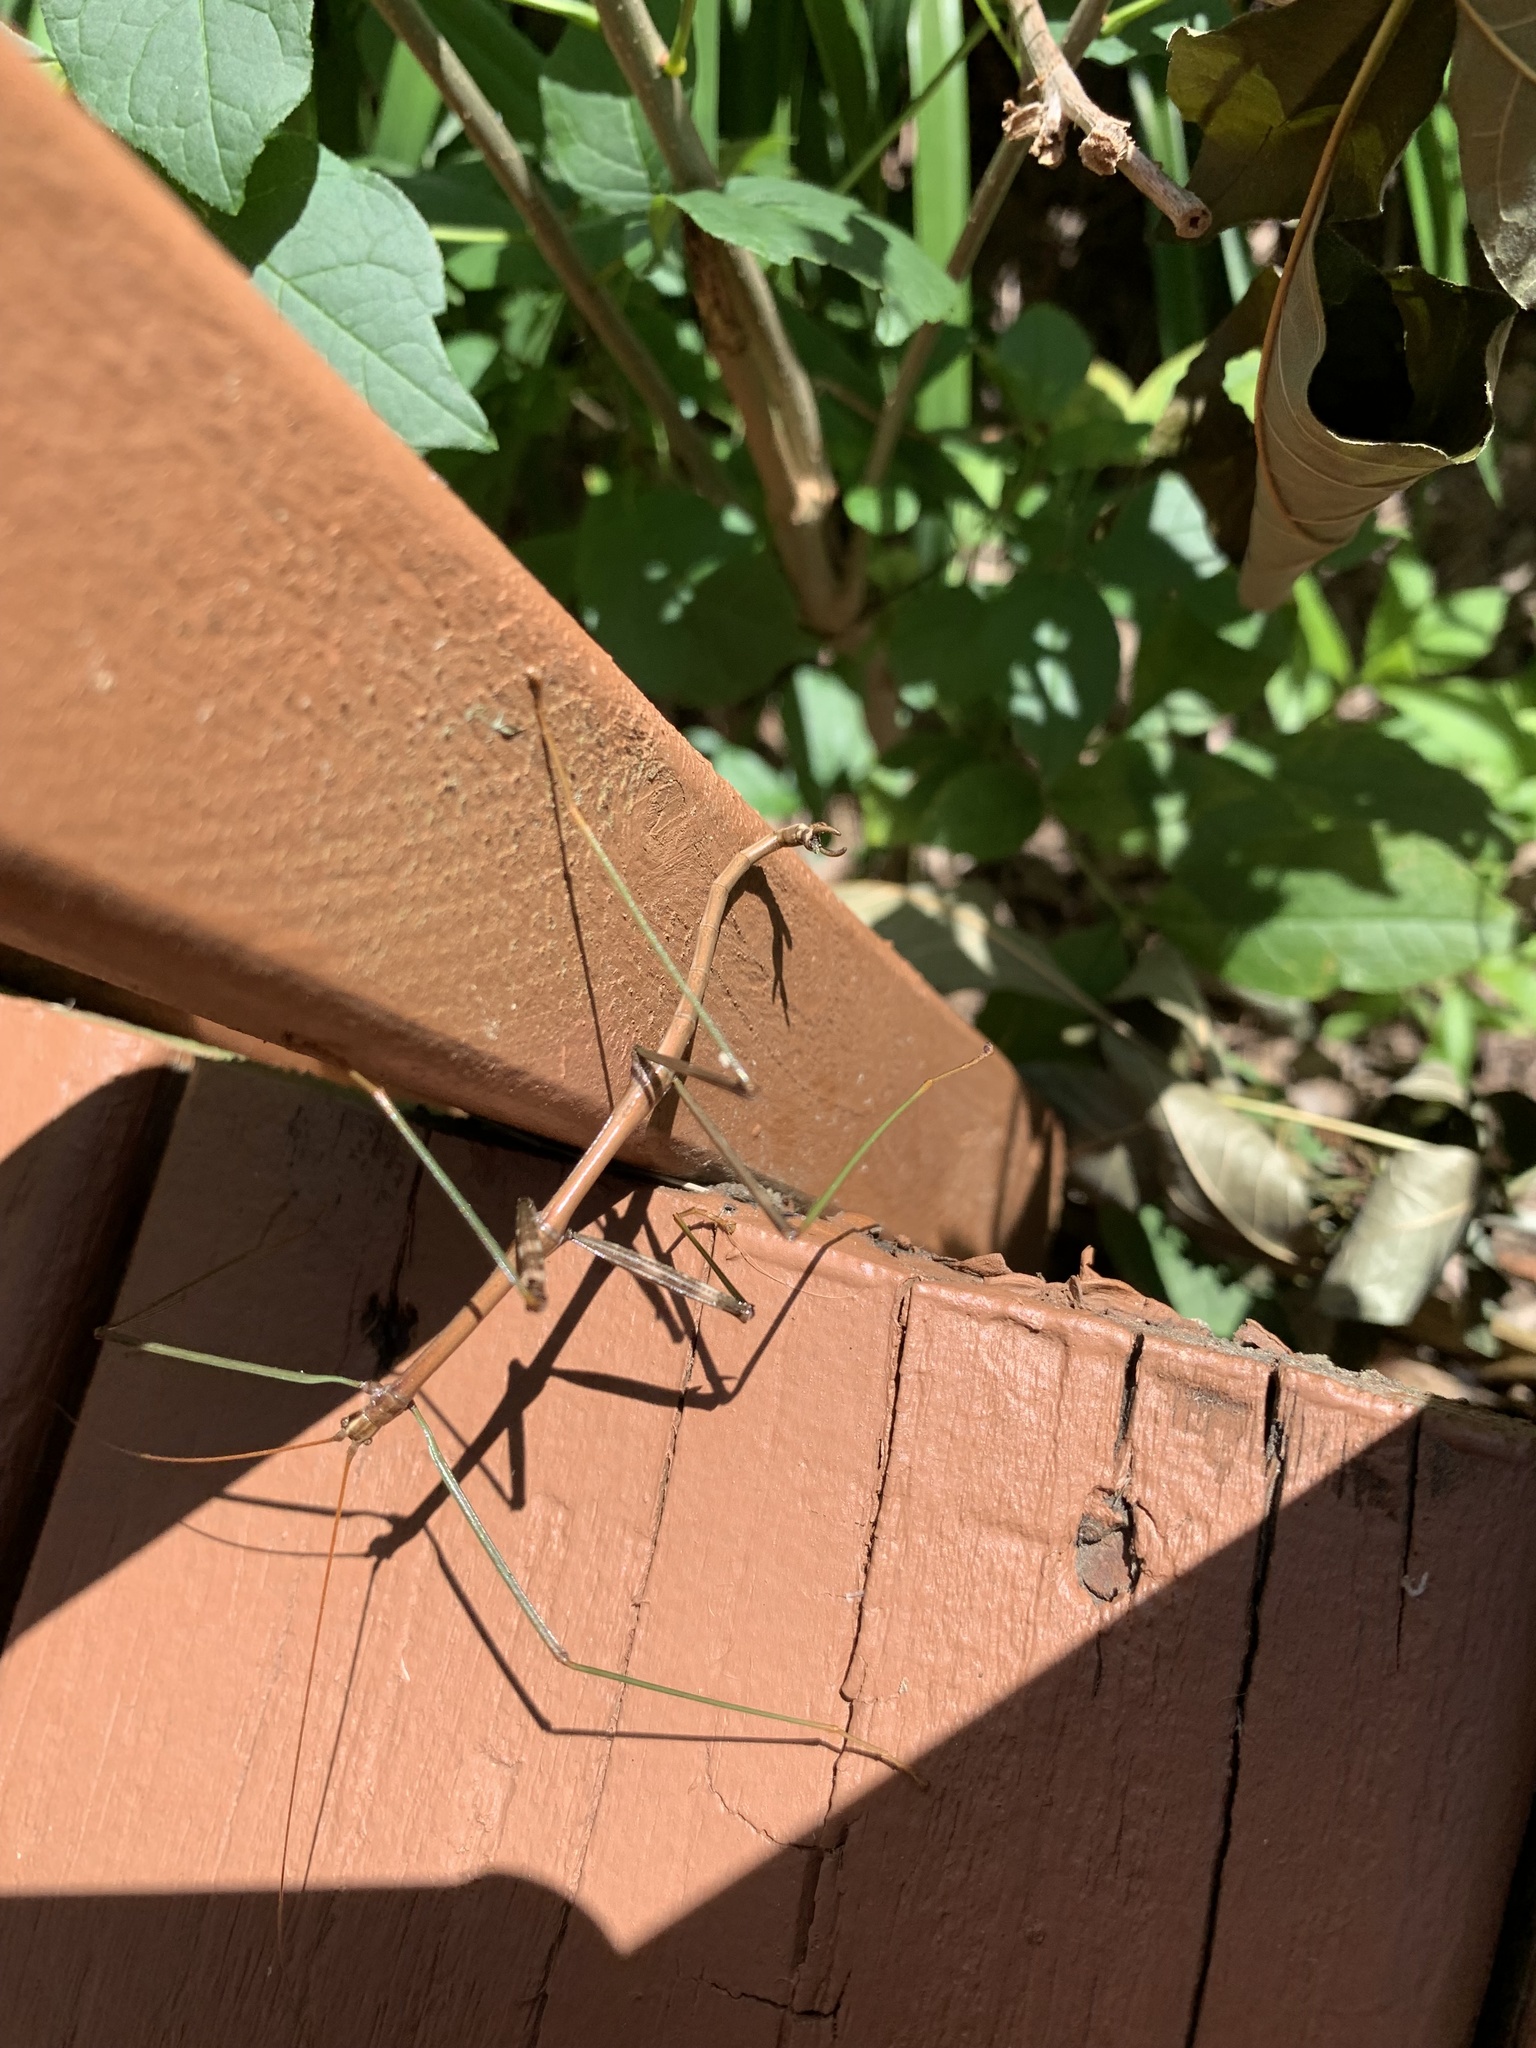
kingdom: Animalia
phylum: Arthropoda
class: Insecta
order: Phasmida
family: Diapheromeridae
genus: Megaphasma
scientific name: Megaphasma denticrus
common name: Giant walkingstick
